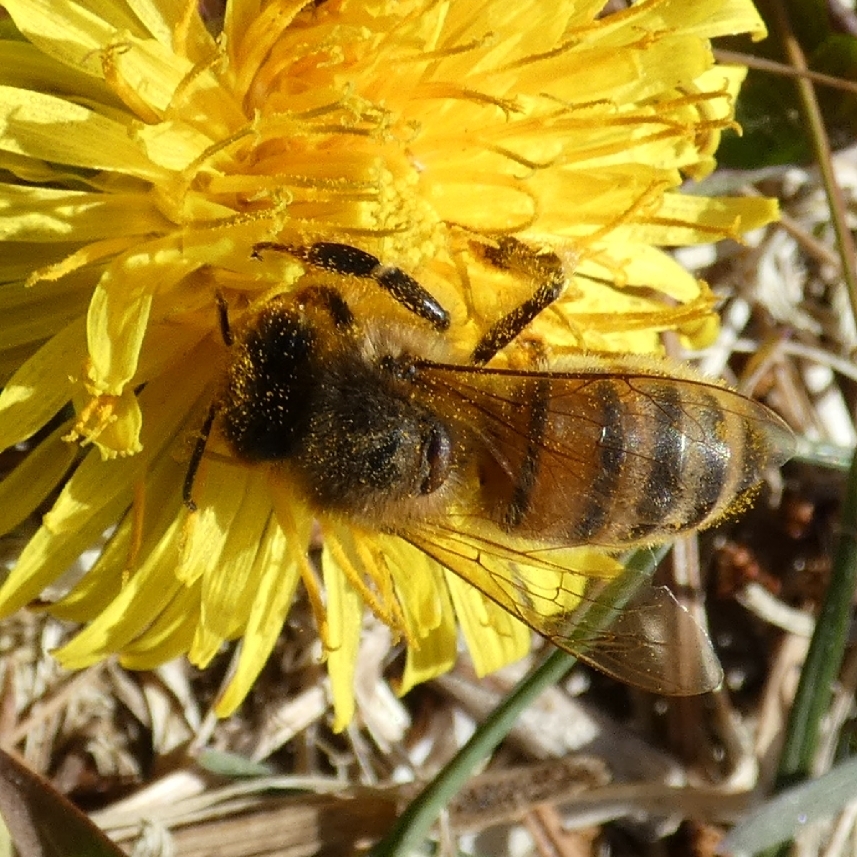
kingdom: Animalia
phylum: Arthropoda
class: Insecta
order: Hymenoptera
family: Apidae
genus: Apis
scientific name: Apis mellifera
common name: Honey bee
